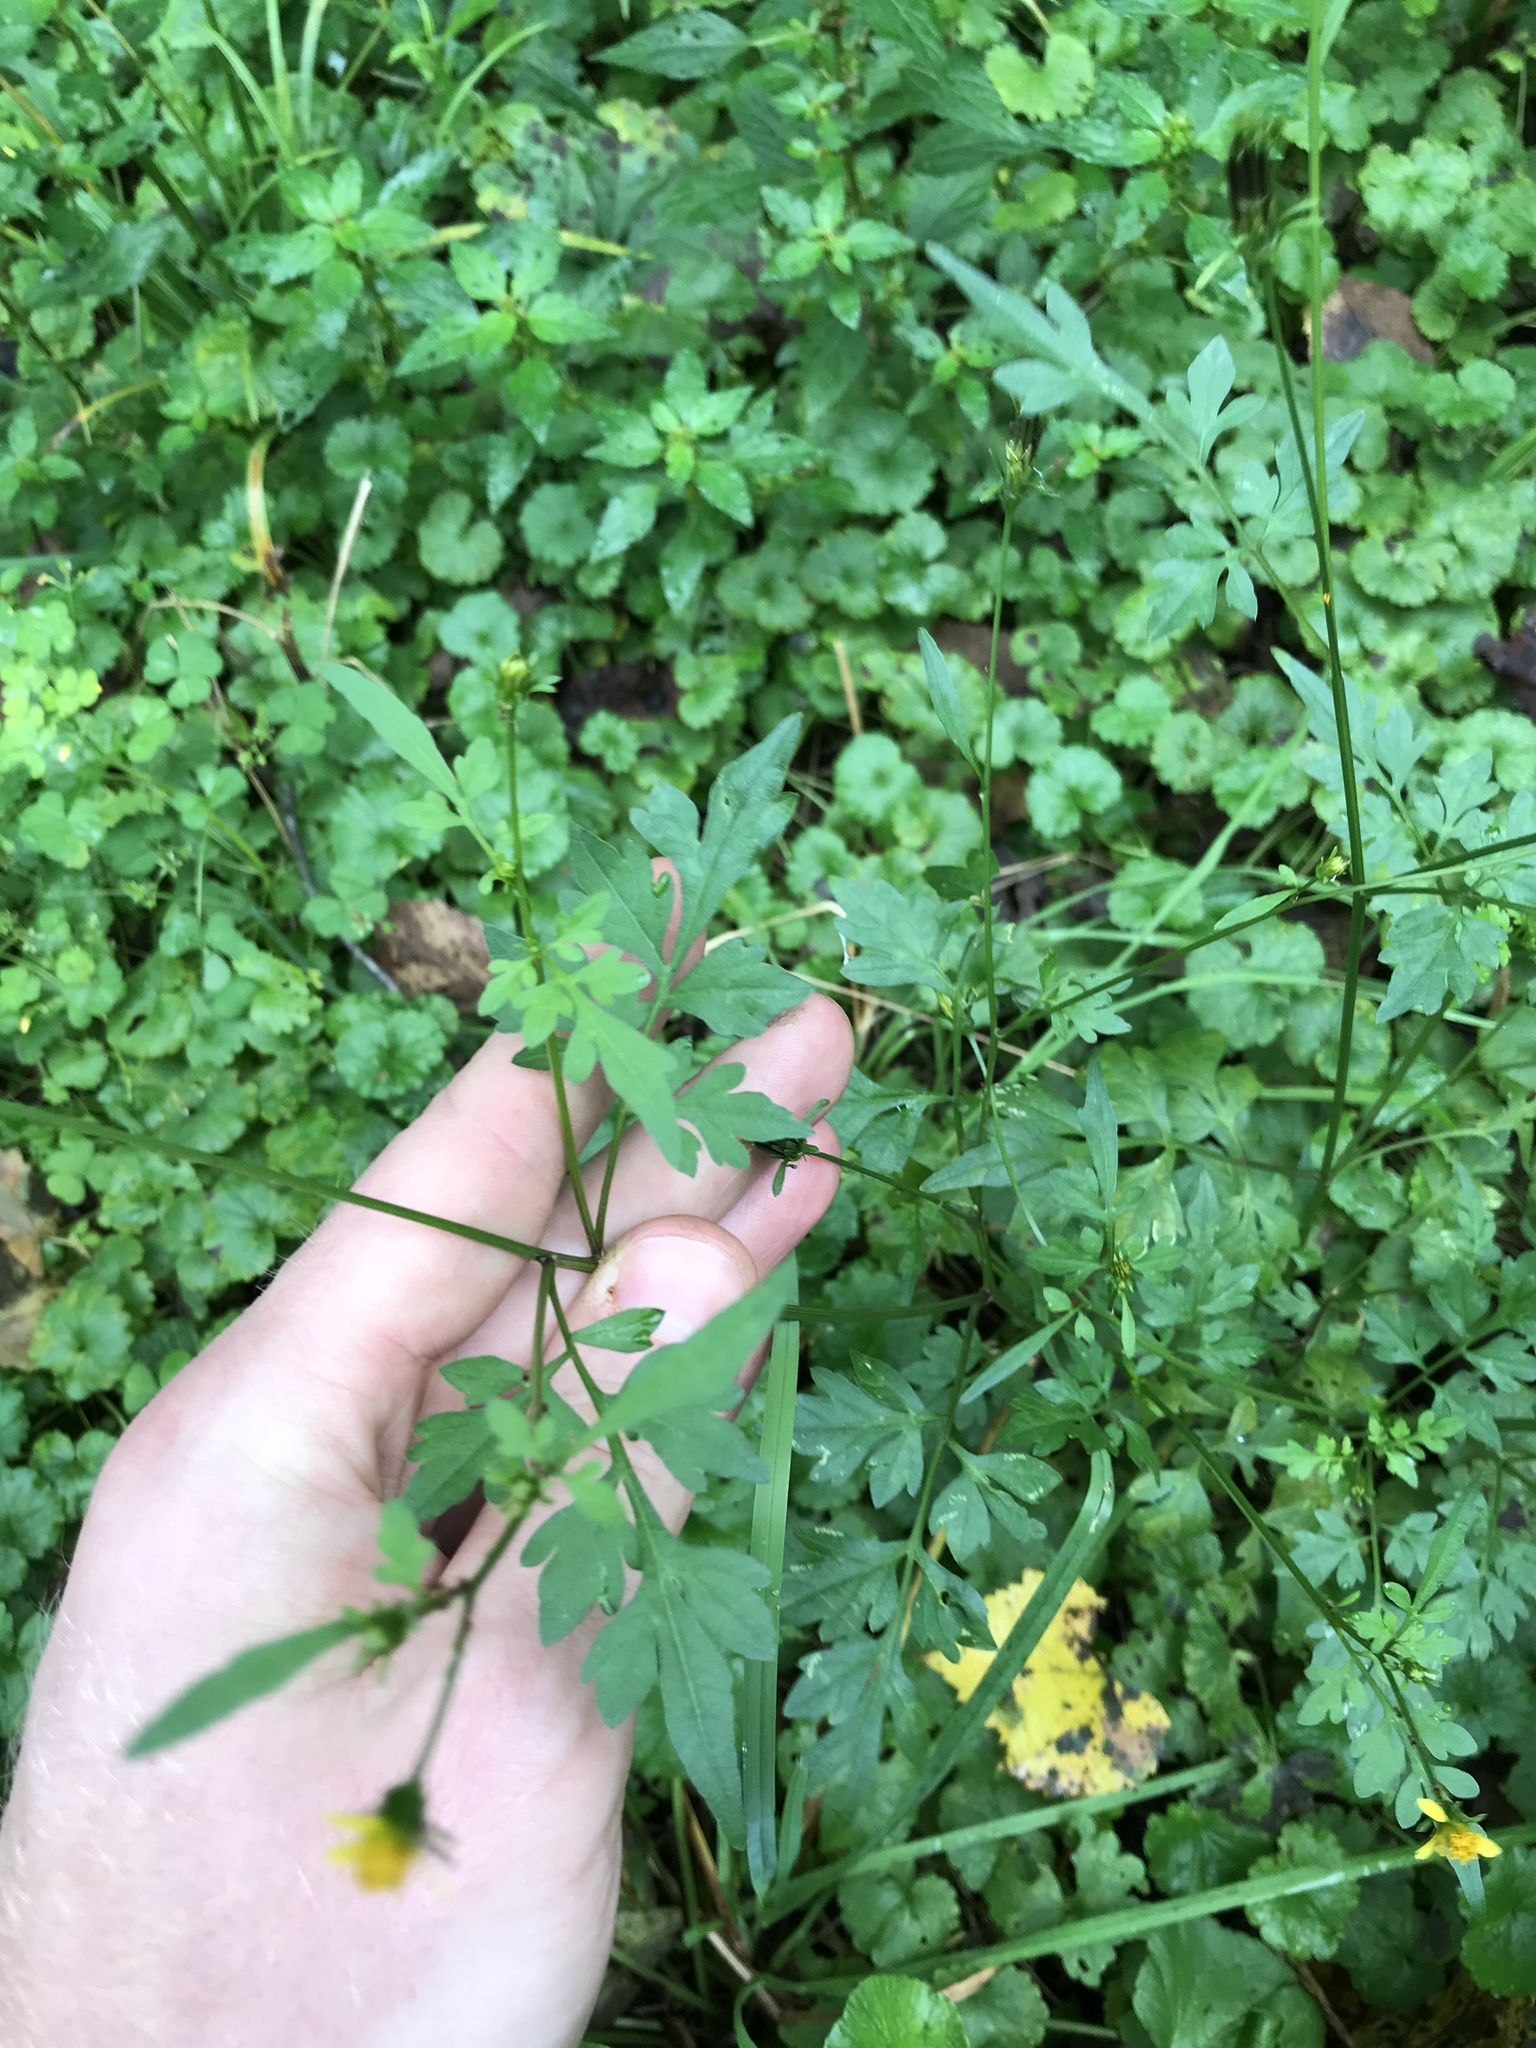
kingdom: Plantae
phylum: Tracheophyta
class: Magnoliopsida
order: Asterales
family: Asteraceae
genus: Bidens
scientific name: Bidens bipinnata
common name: Spanish-needles
